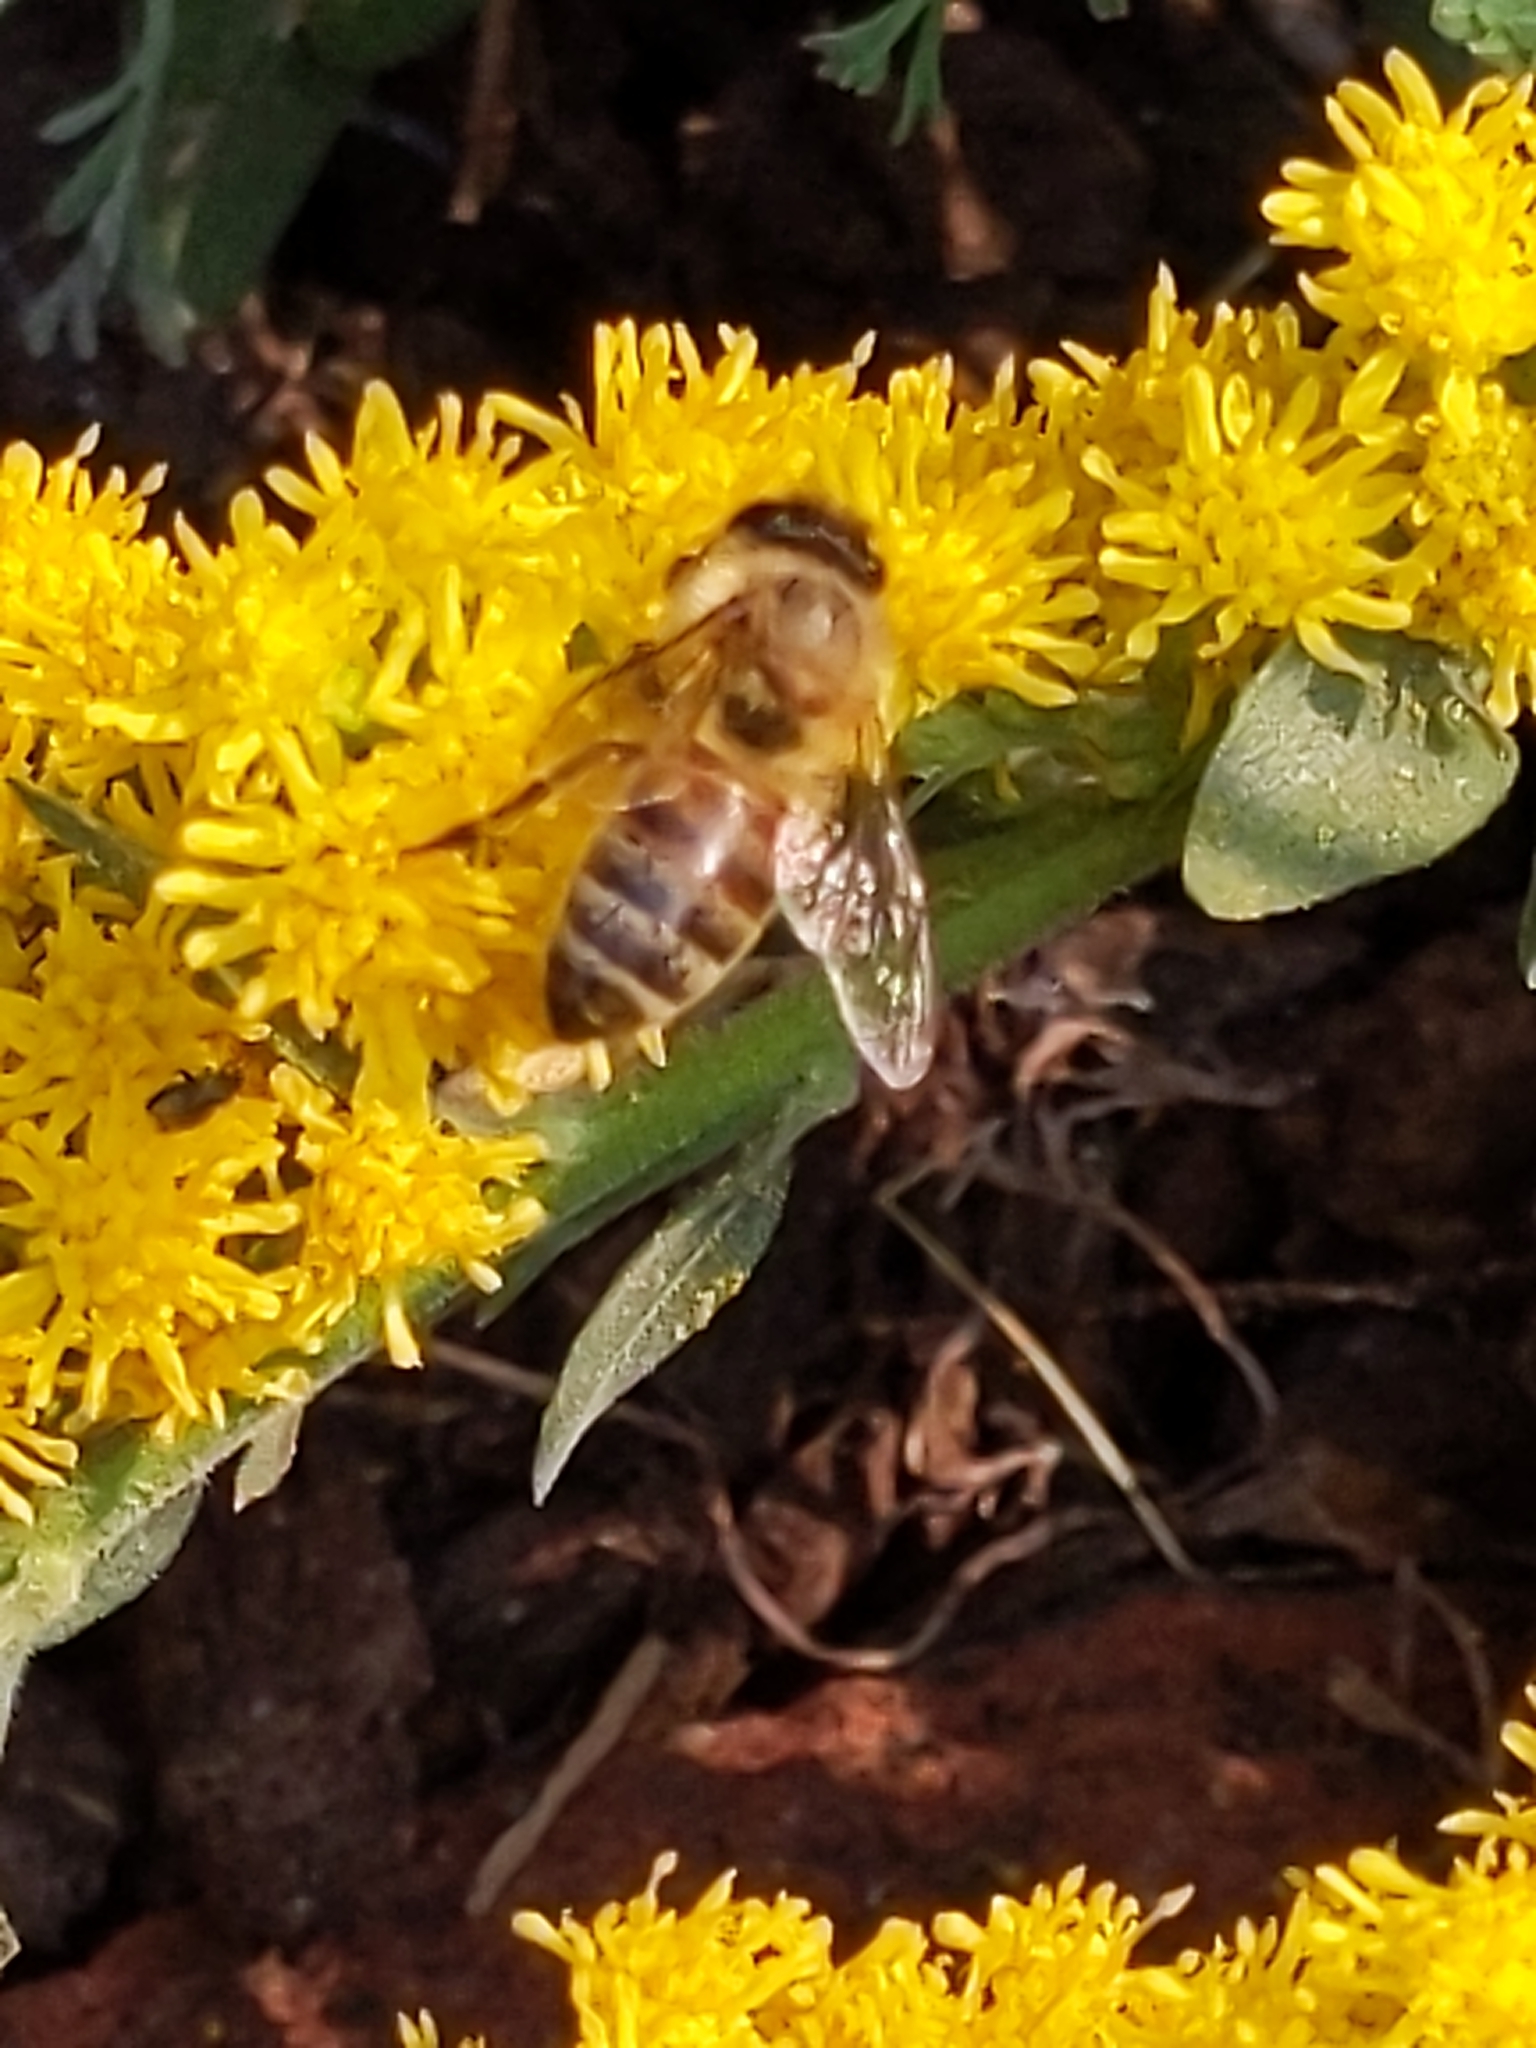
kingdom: Animalia
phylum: Arthropoda
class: Insecta
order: Hymenoptera
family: Apidae
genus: Apis
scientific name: Apis mellifera
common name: Honey bee
